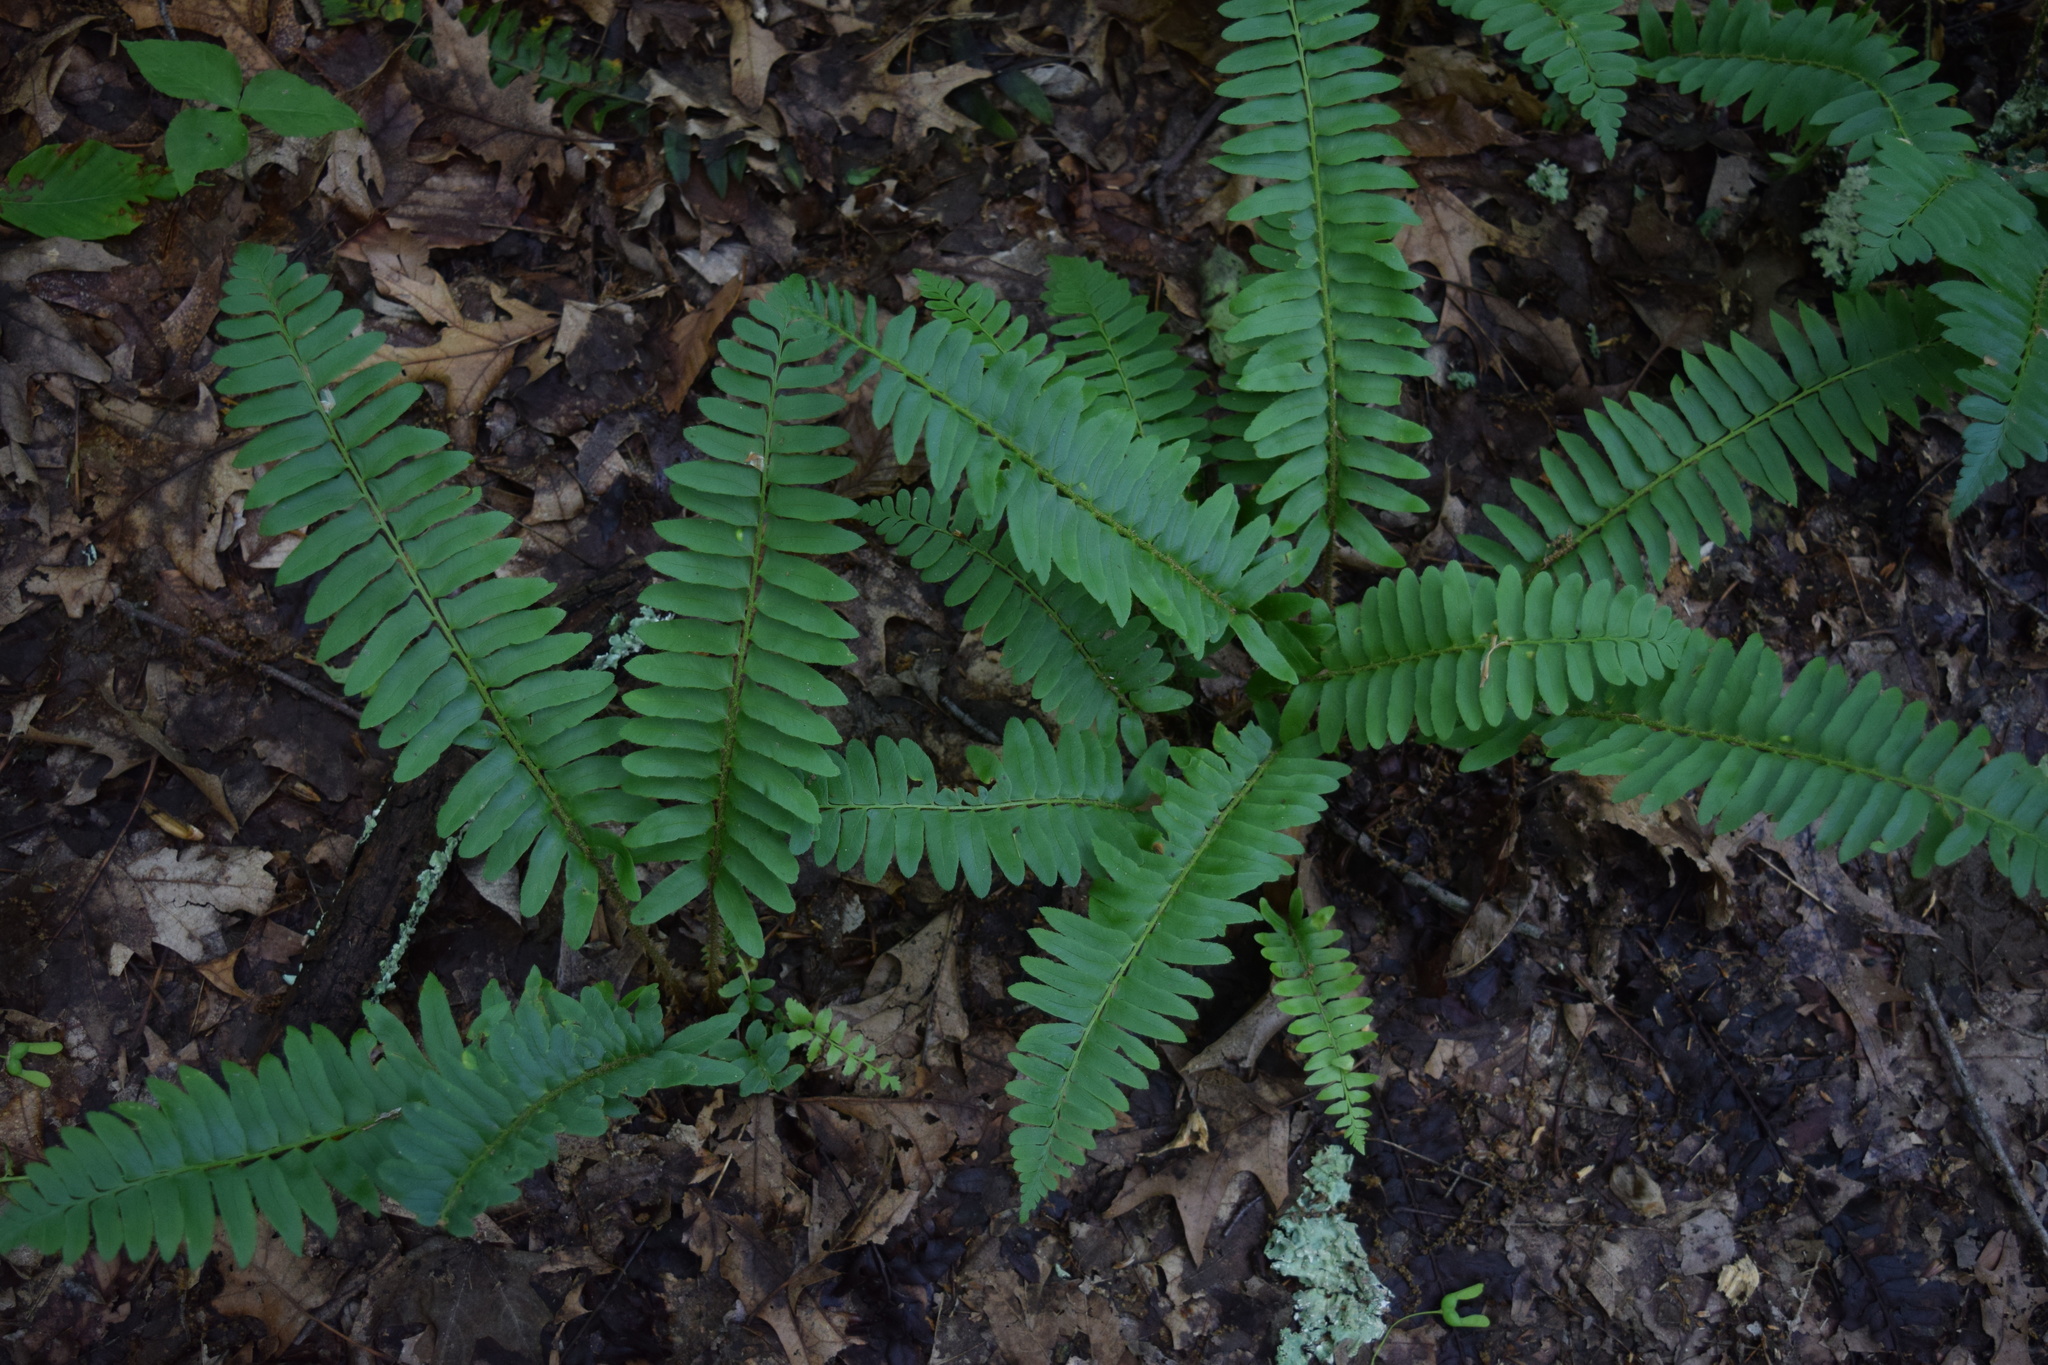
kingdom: Plantae
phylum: Tracheophyta
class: Polypodiopsida
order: Polypodiales
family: Dryopteridaceae
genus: Polystichum
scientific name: Polystichum acrostichoides
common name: Christmas fern
